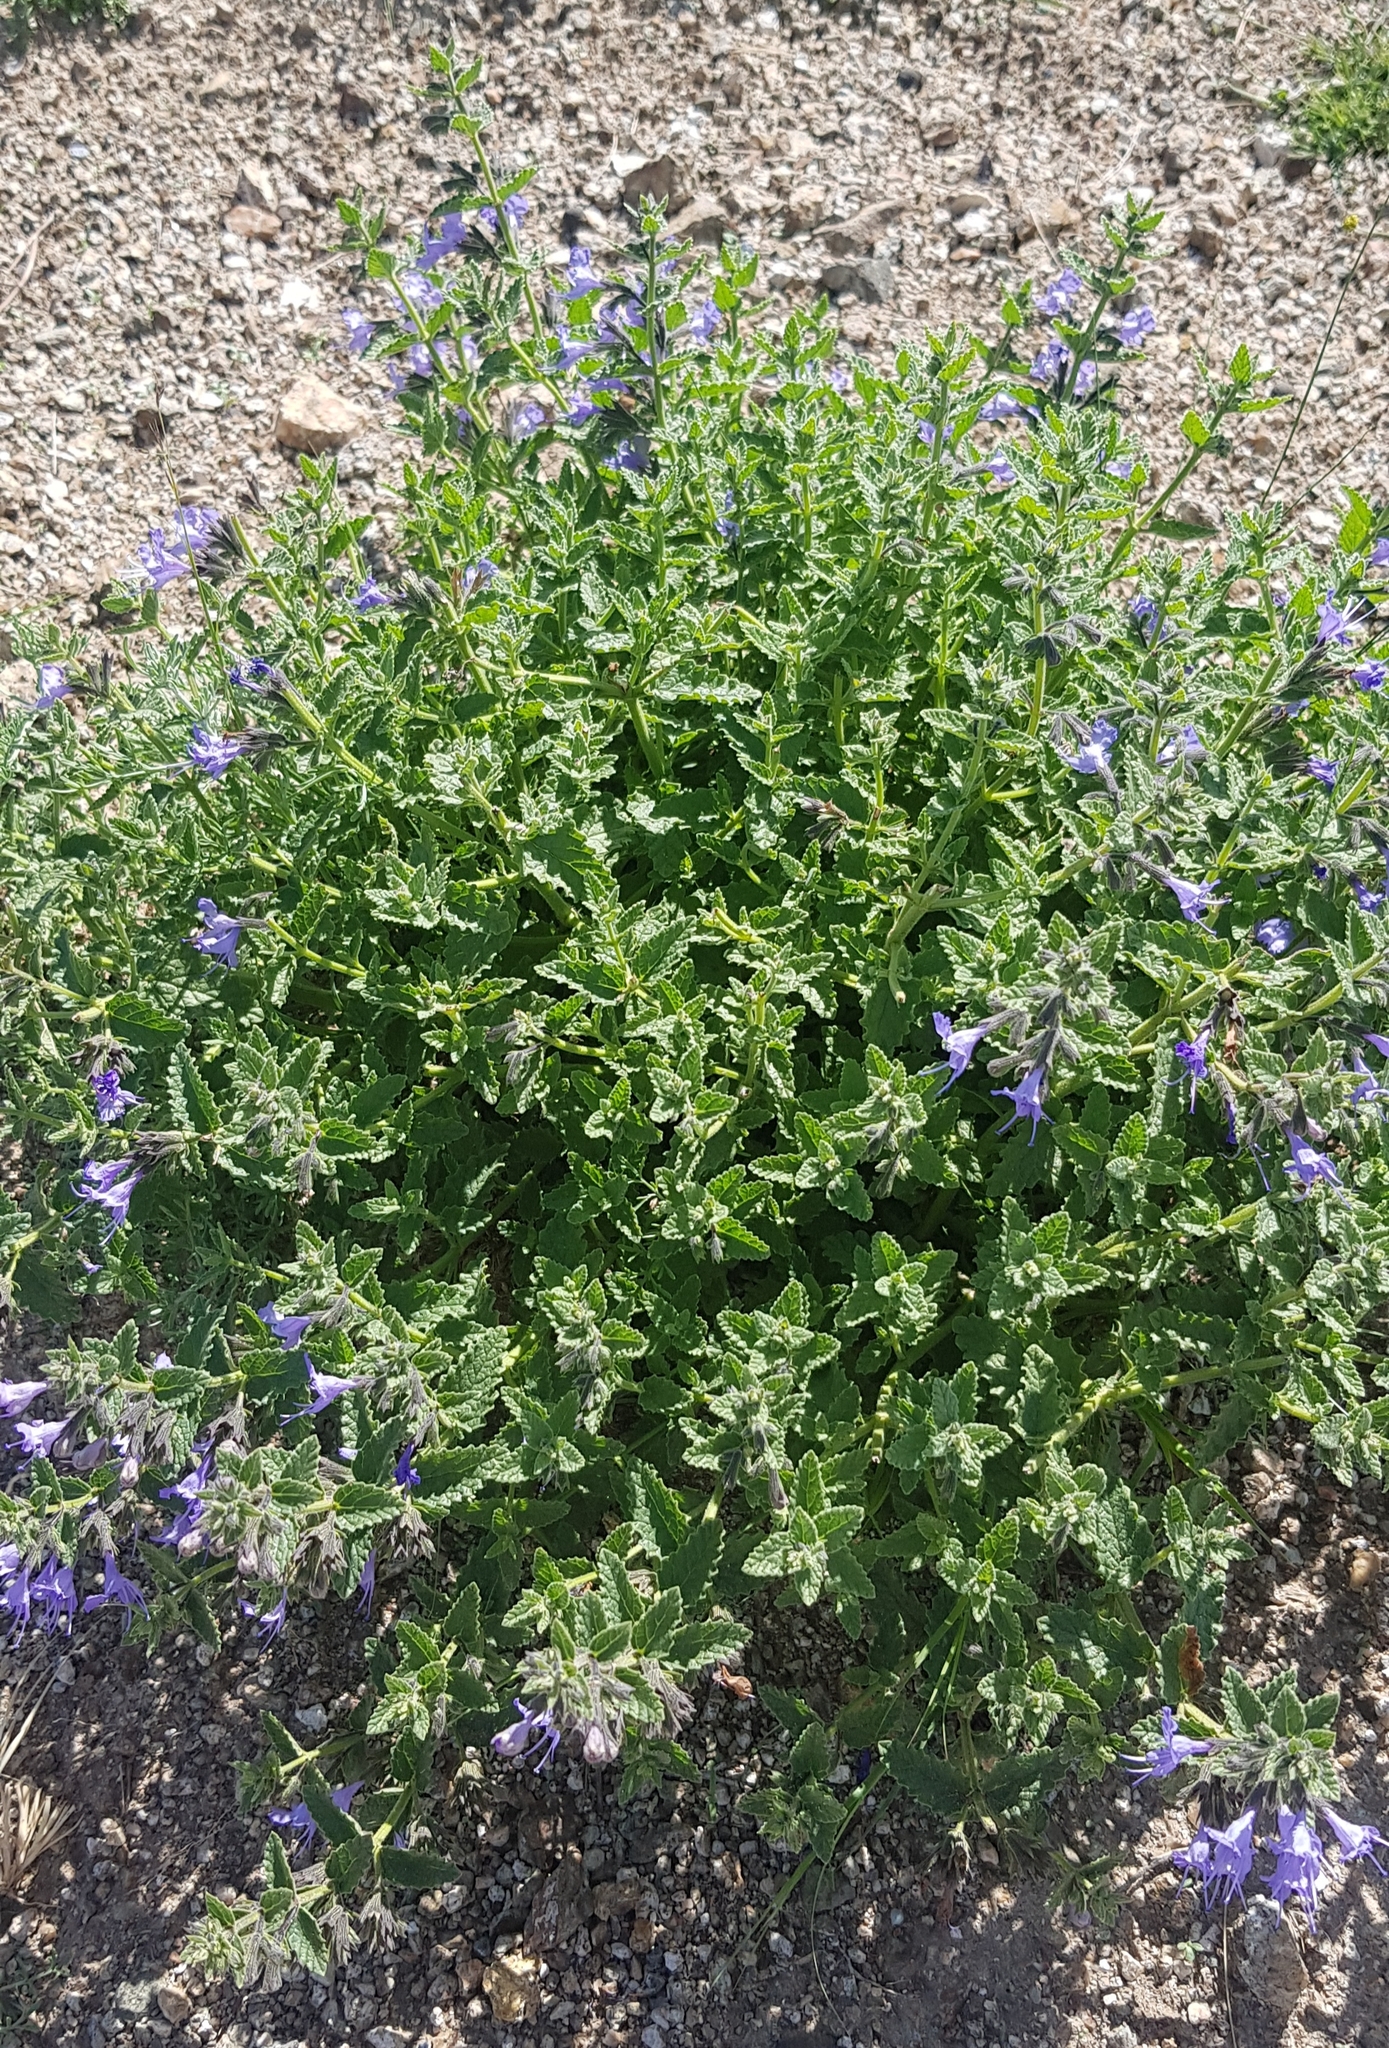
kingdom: Plantae
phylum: Tracheophyta
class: Magnoliopsida
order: Lamiales
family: Lamiaceae
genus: Nepeta
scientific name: Nepeta lophanthus
